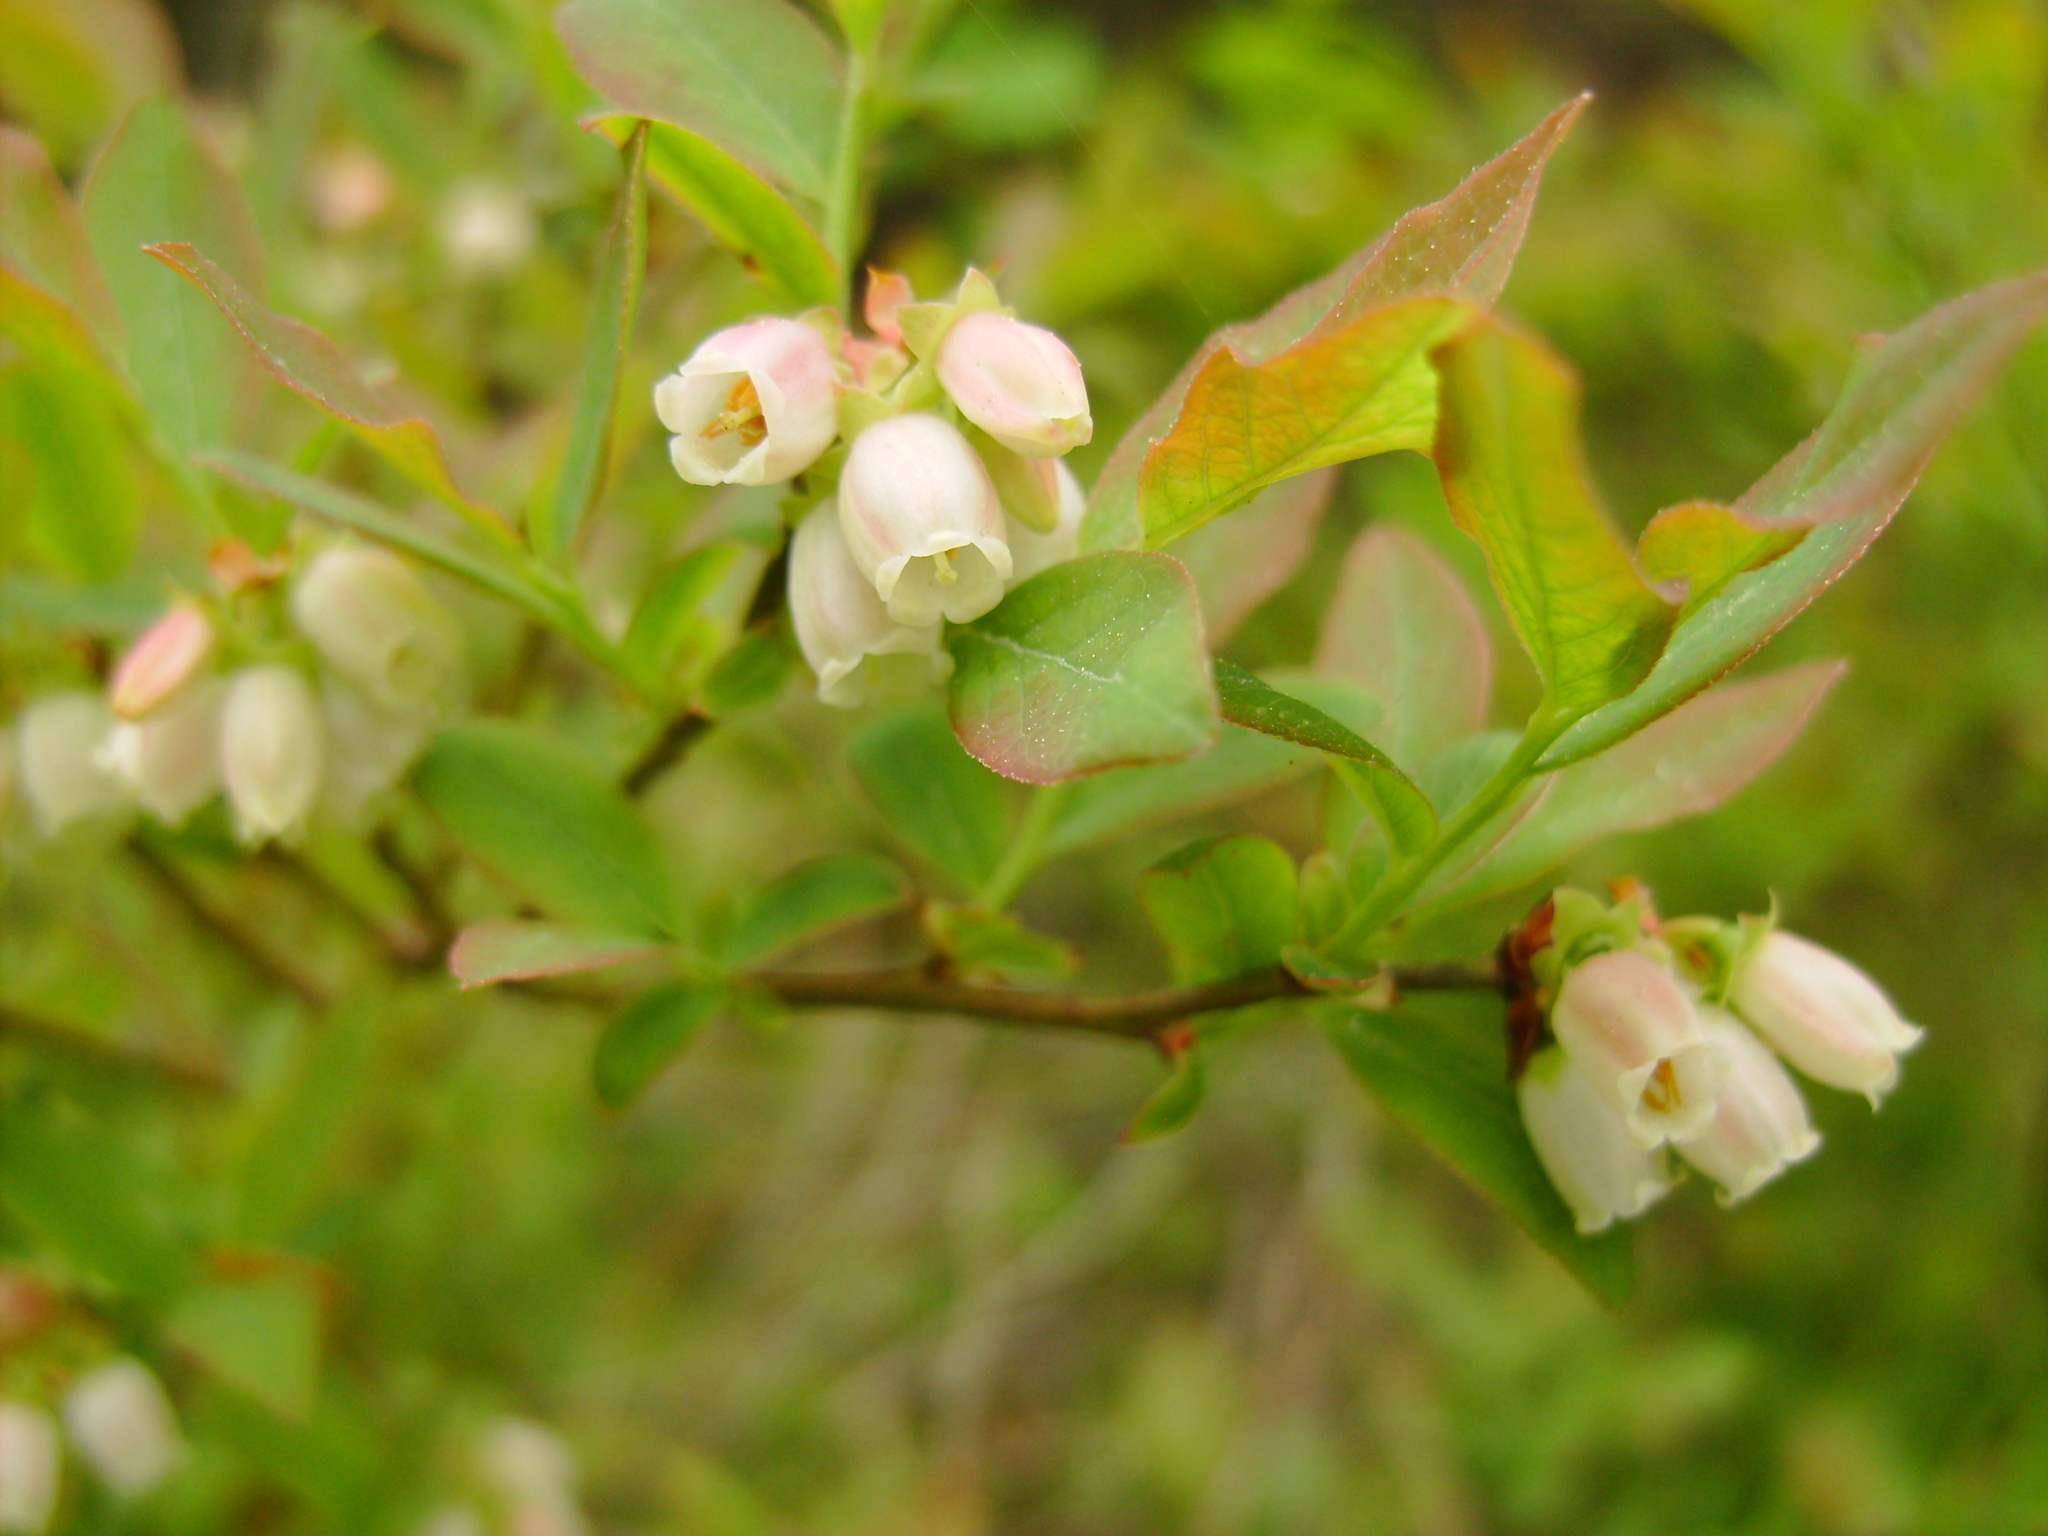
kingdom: Plantae
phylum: Tracheophyta
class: Magnoliopsida
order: Ericales
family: Ericaceae
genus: Vaccinium
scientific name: Vaccinium angustifolium
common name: Early lowbush blueberry
